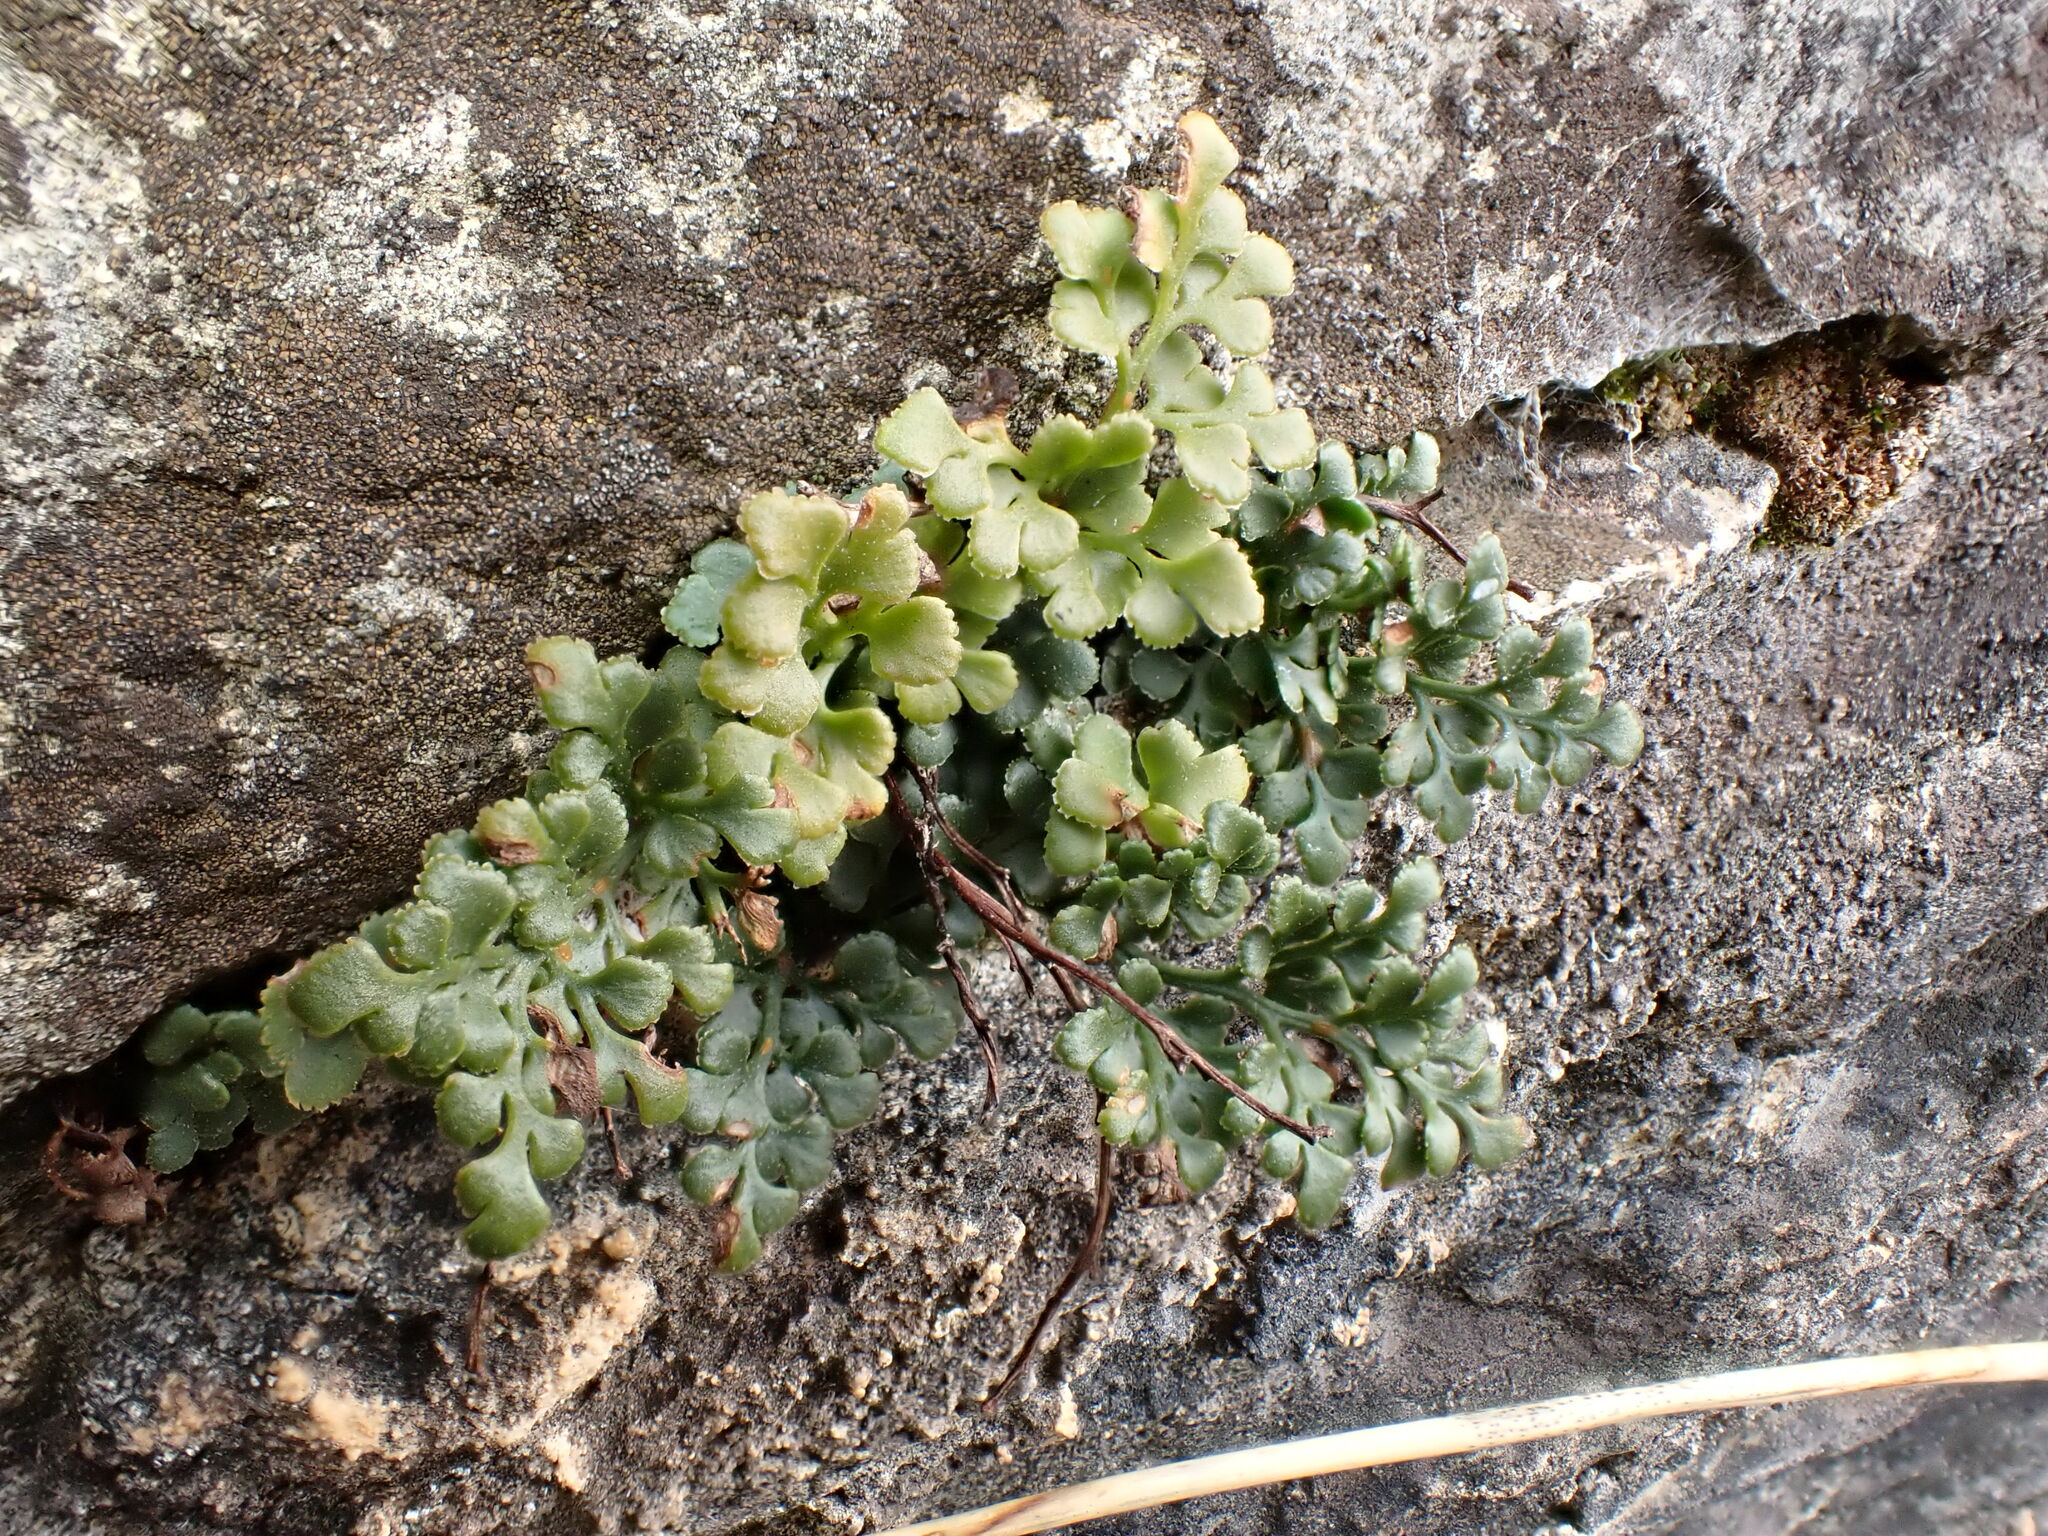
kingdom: Plantae
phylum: Tracheophyta
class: Polypodiopsida
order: Polypodiales
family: Aspleniaceae
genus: Asplenium
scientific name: Asplenium ruta-muraria
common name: Wall-rue
